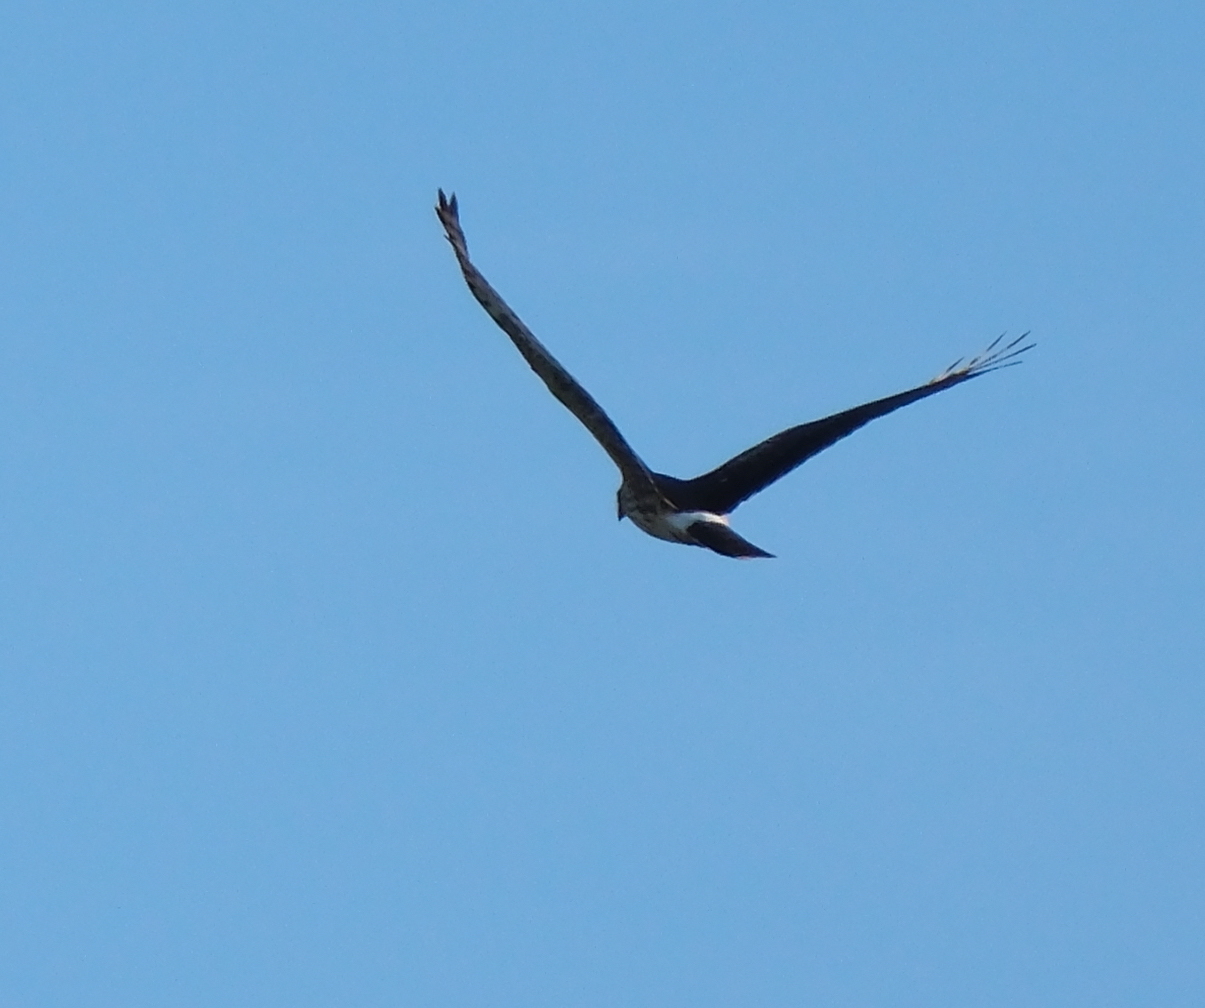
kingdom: Animalia
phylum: Chordata
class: Aves
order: Accipitriformes
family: Accipitridae
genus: Circus
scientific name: Circus cyaneus
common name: Hen harrier
